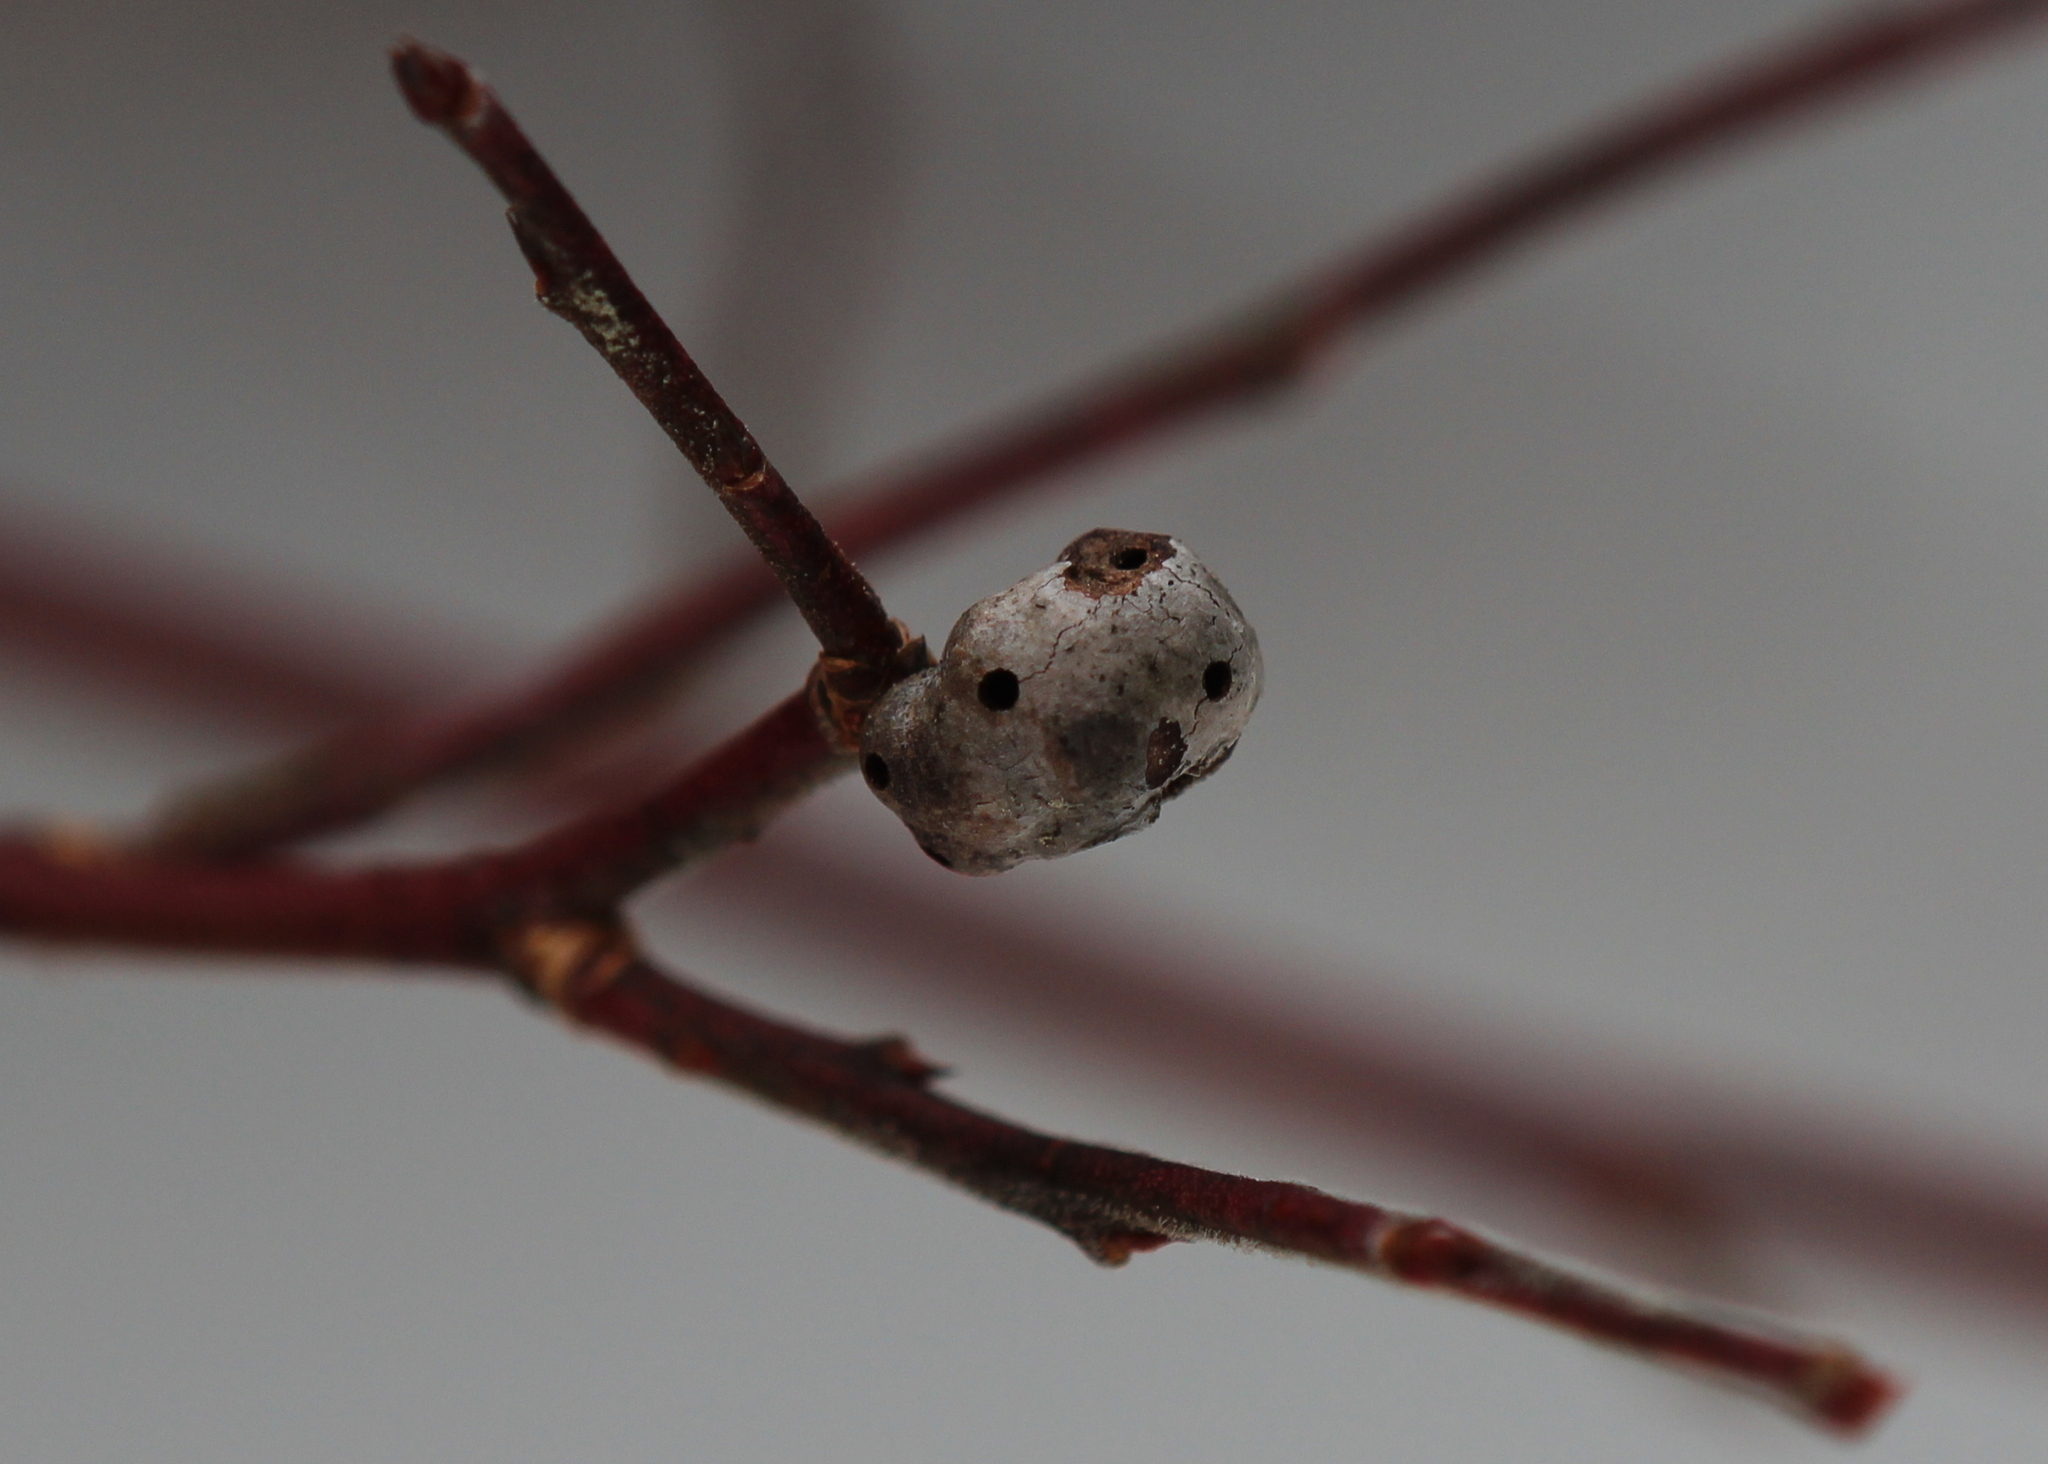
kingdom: Animalia
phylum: Arthropoda
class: Insecta
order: Hymenoptera
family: Pteromalidae
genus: Hemadas
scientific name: Hemadas nubilipennis
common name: Blueberry stem gall wasp
